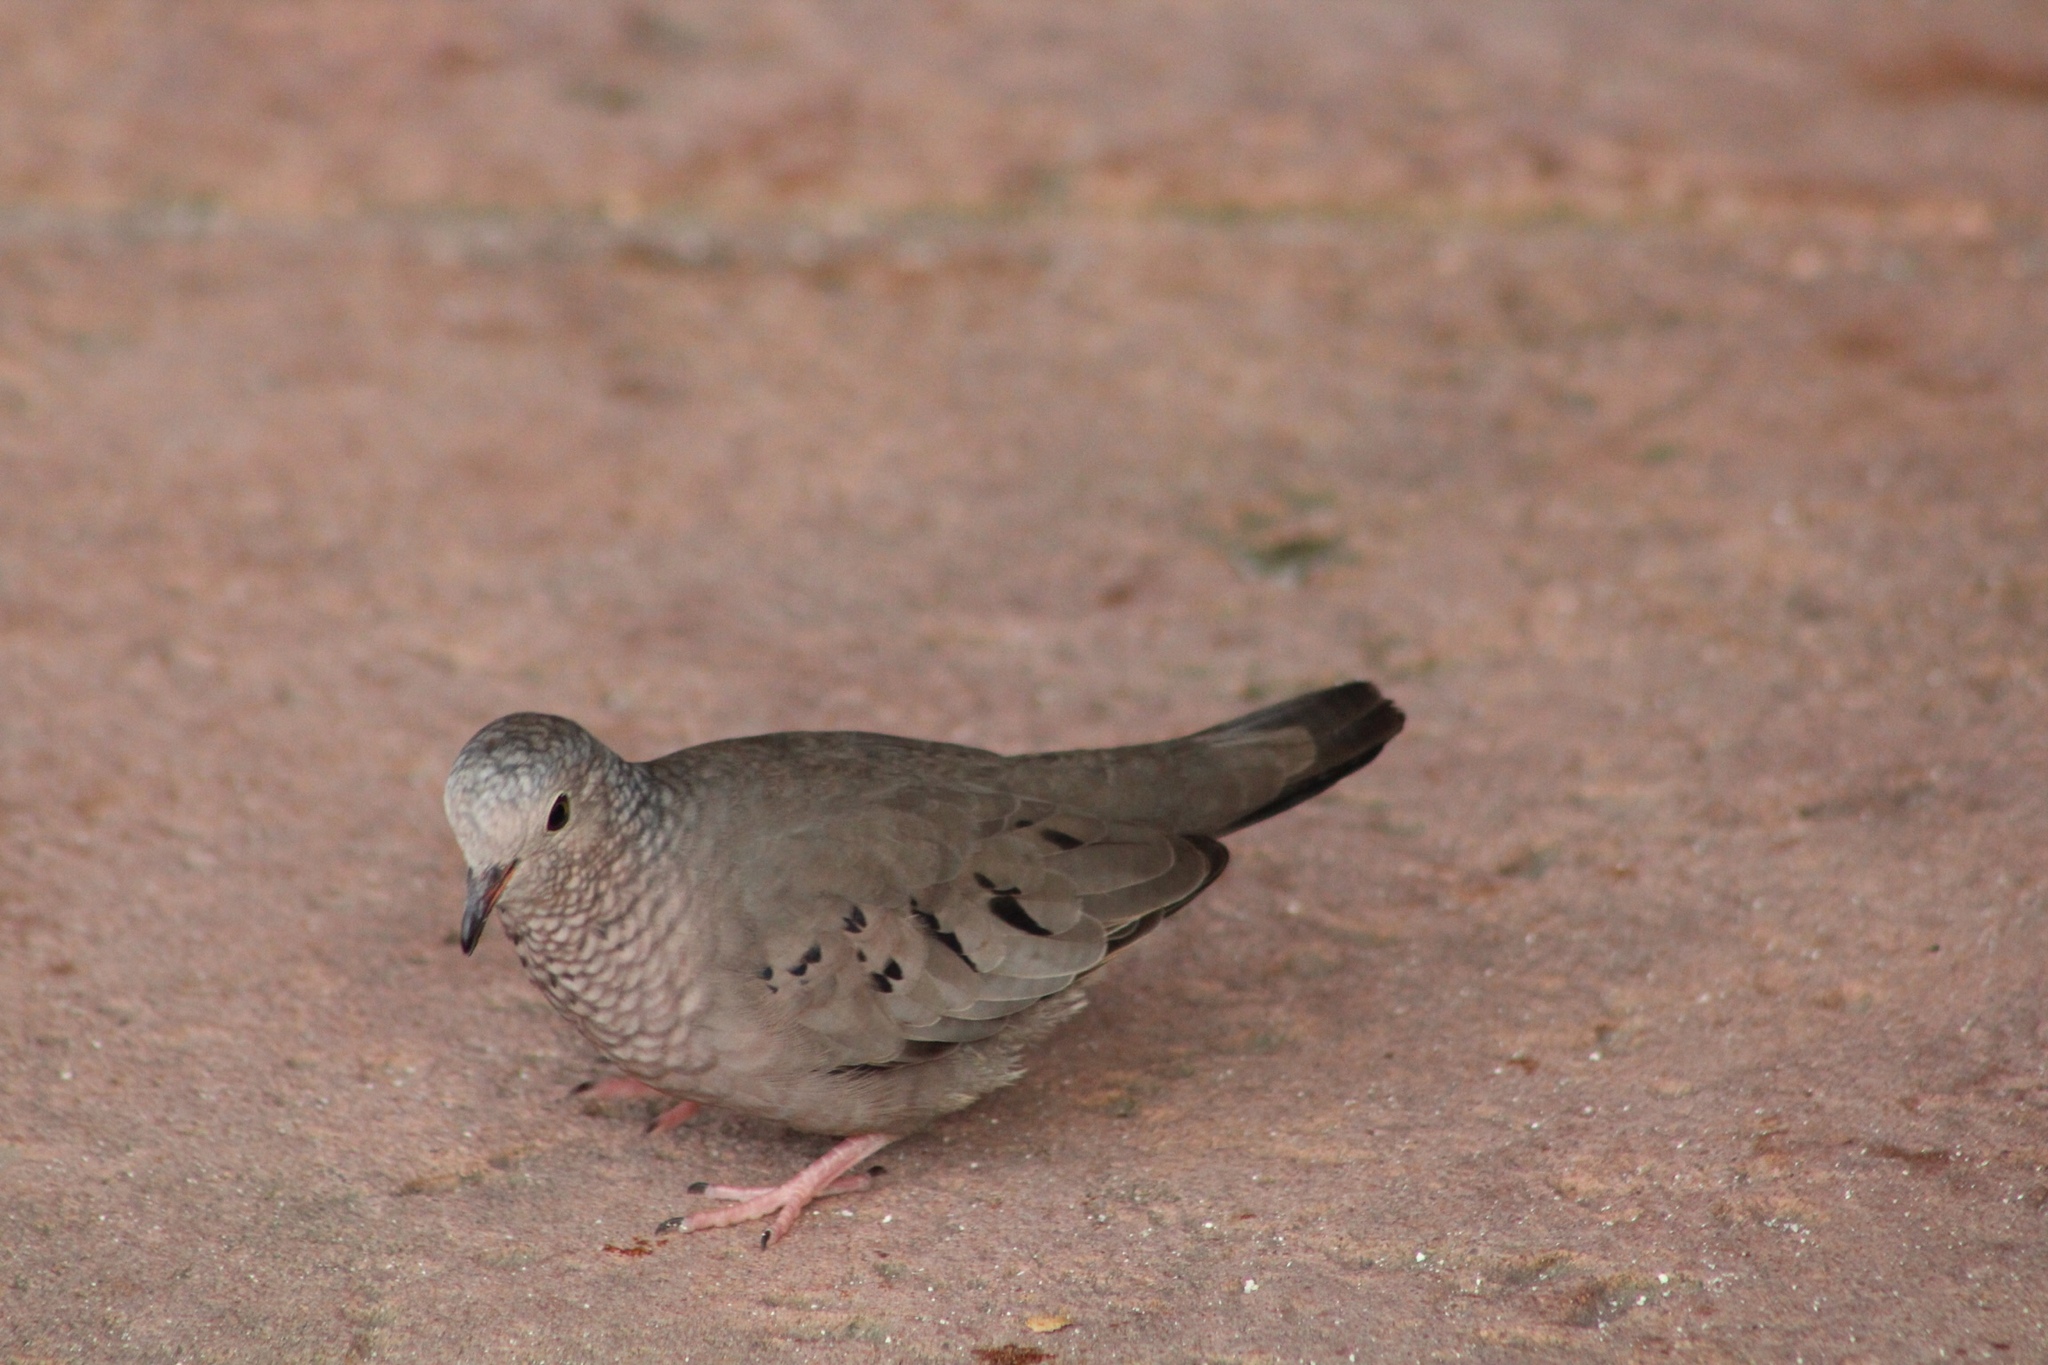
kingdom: Animalia
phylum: Chordata
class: Aves
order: Columbiformes
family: Columbidae
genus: Columbina
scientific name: Columbina passerina
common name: Common ground-dove
